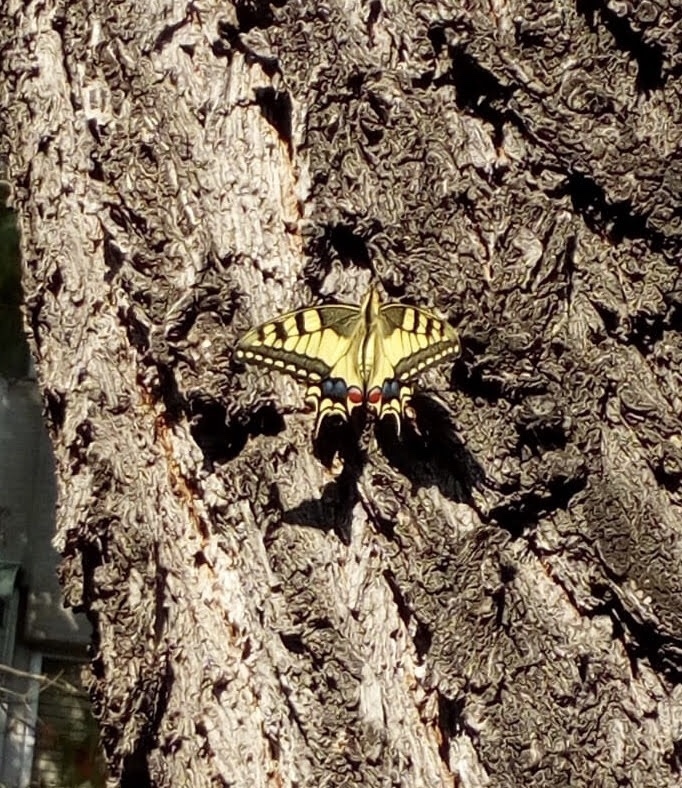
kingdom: Animalia
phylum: Arthropoda
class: Insecta
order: Lepidoptera
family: Papilionidae
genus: Papilio
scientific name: Papilio machaon
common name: Swallowtail
